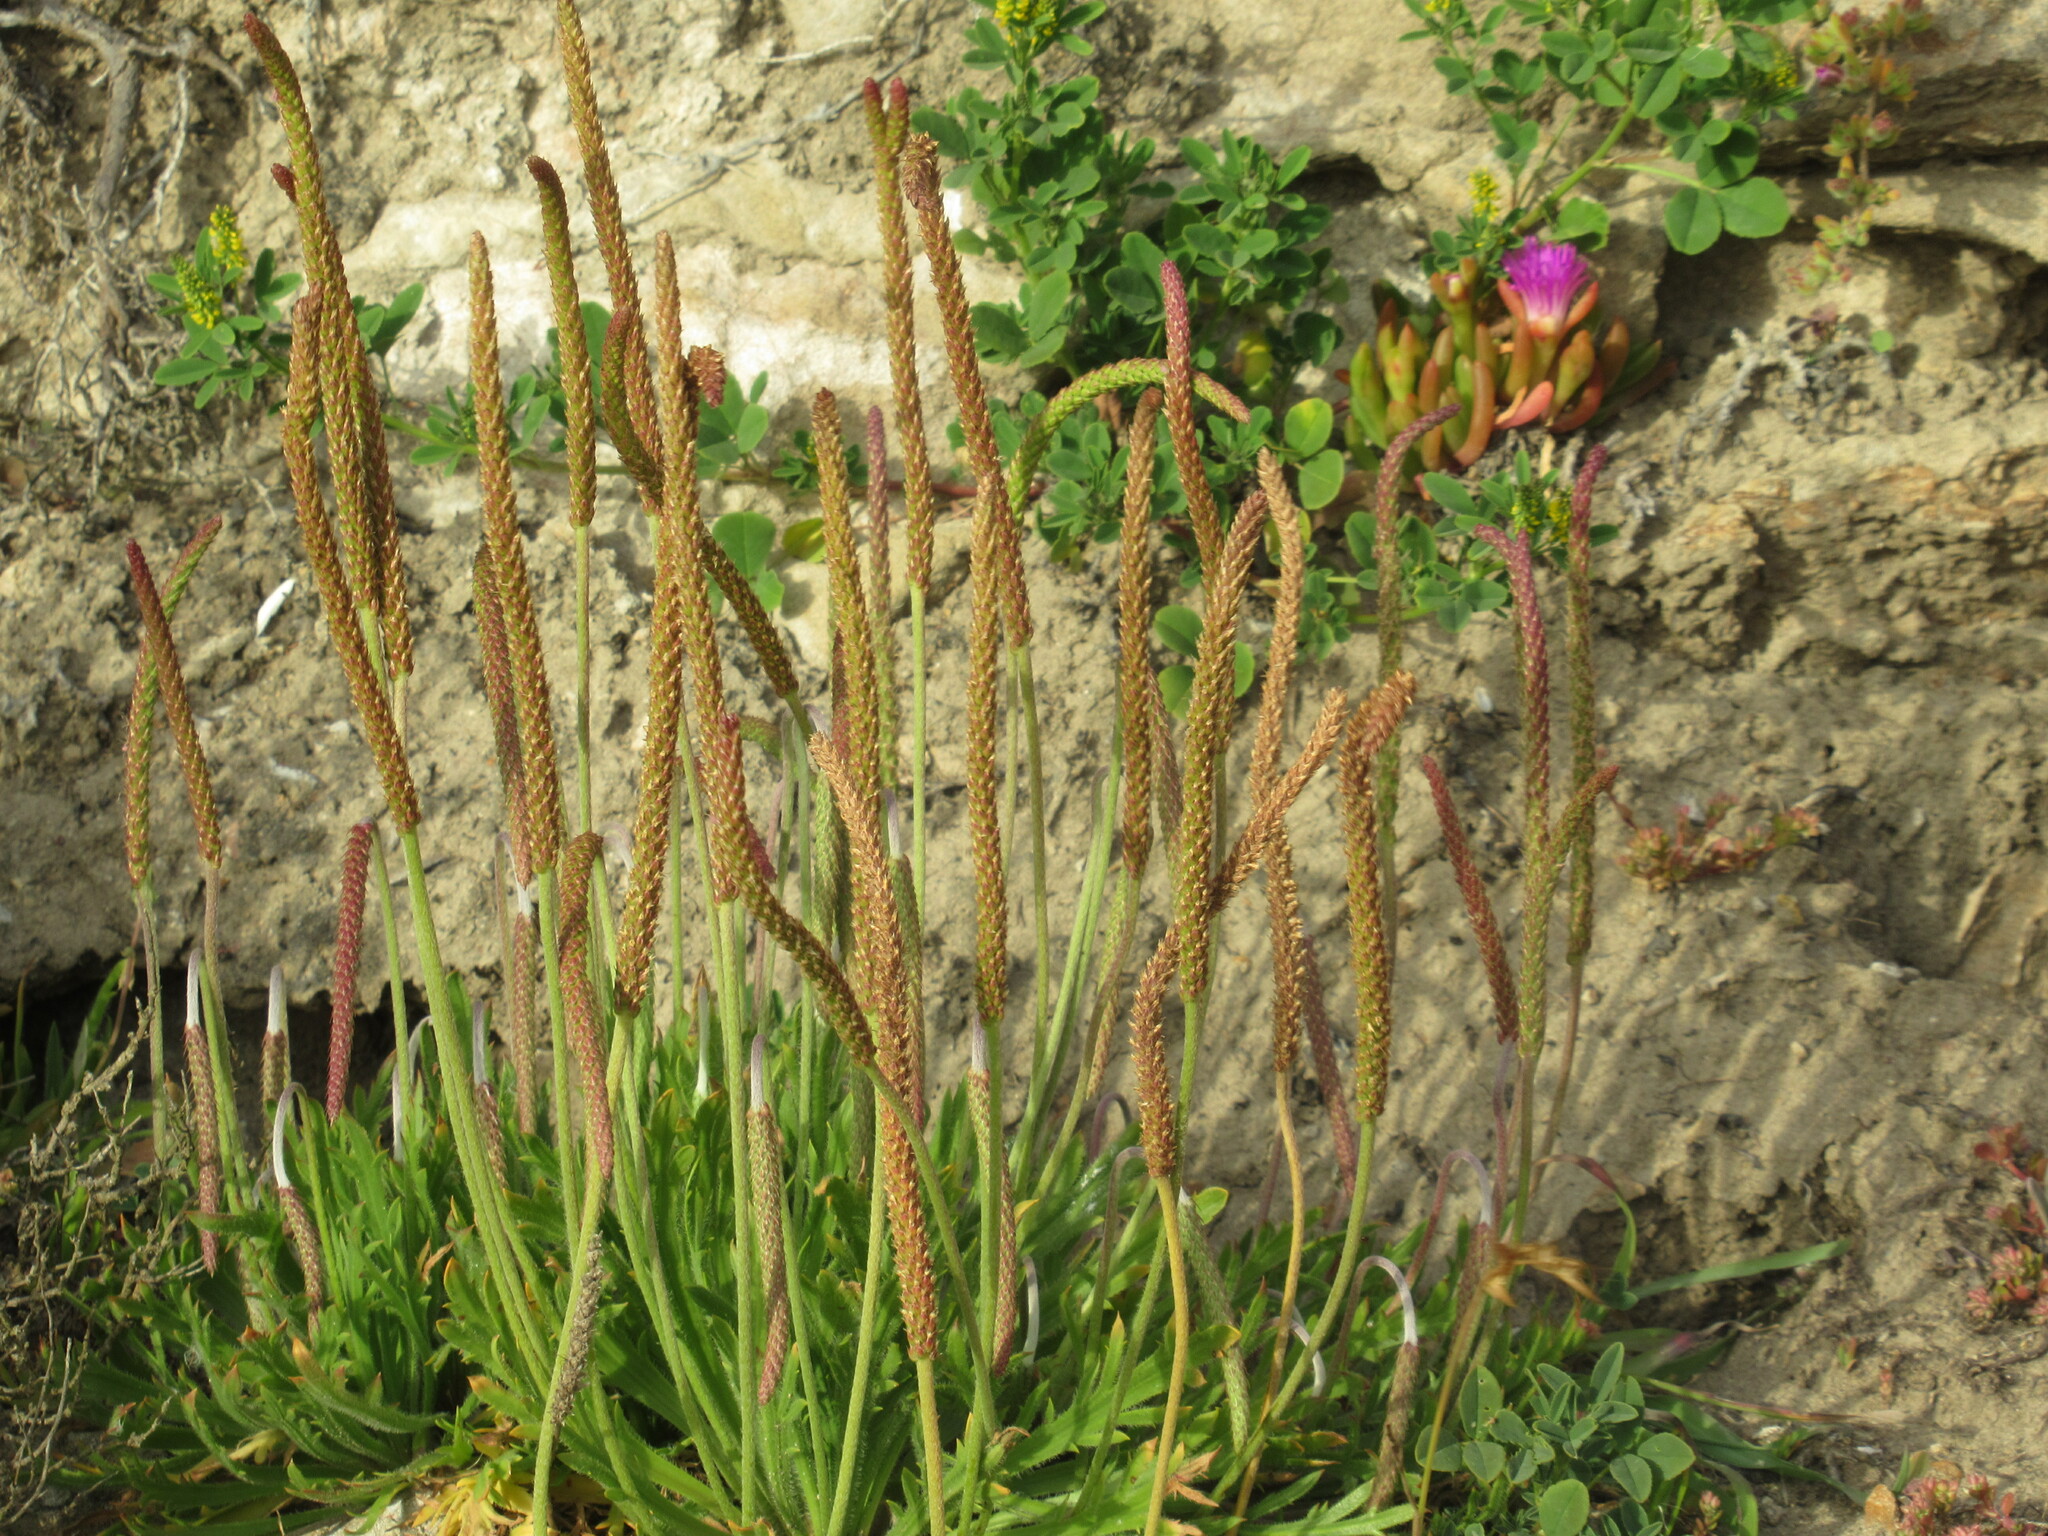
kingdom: Plantae
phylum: Tracheophyta
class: Magnoliopsida
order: Lamiales
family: Plantaginaceae
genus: Plantago
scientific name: Plantago coronopus
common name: Buck's-horn plantain
